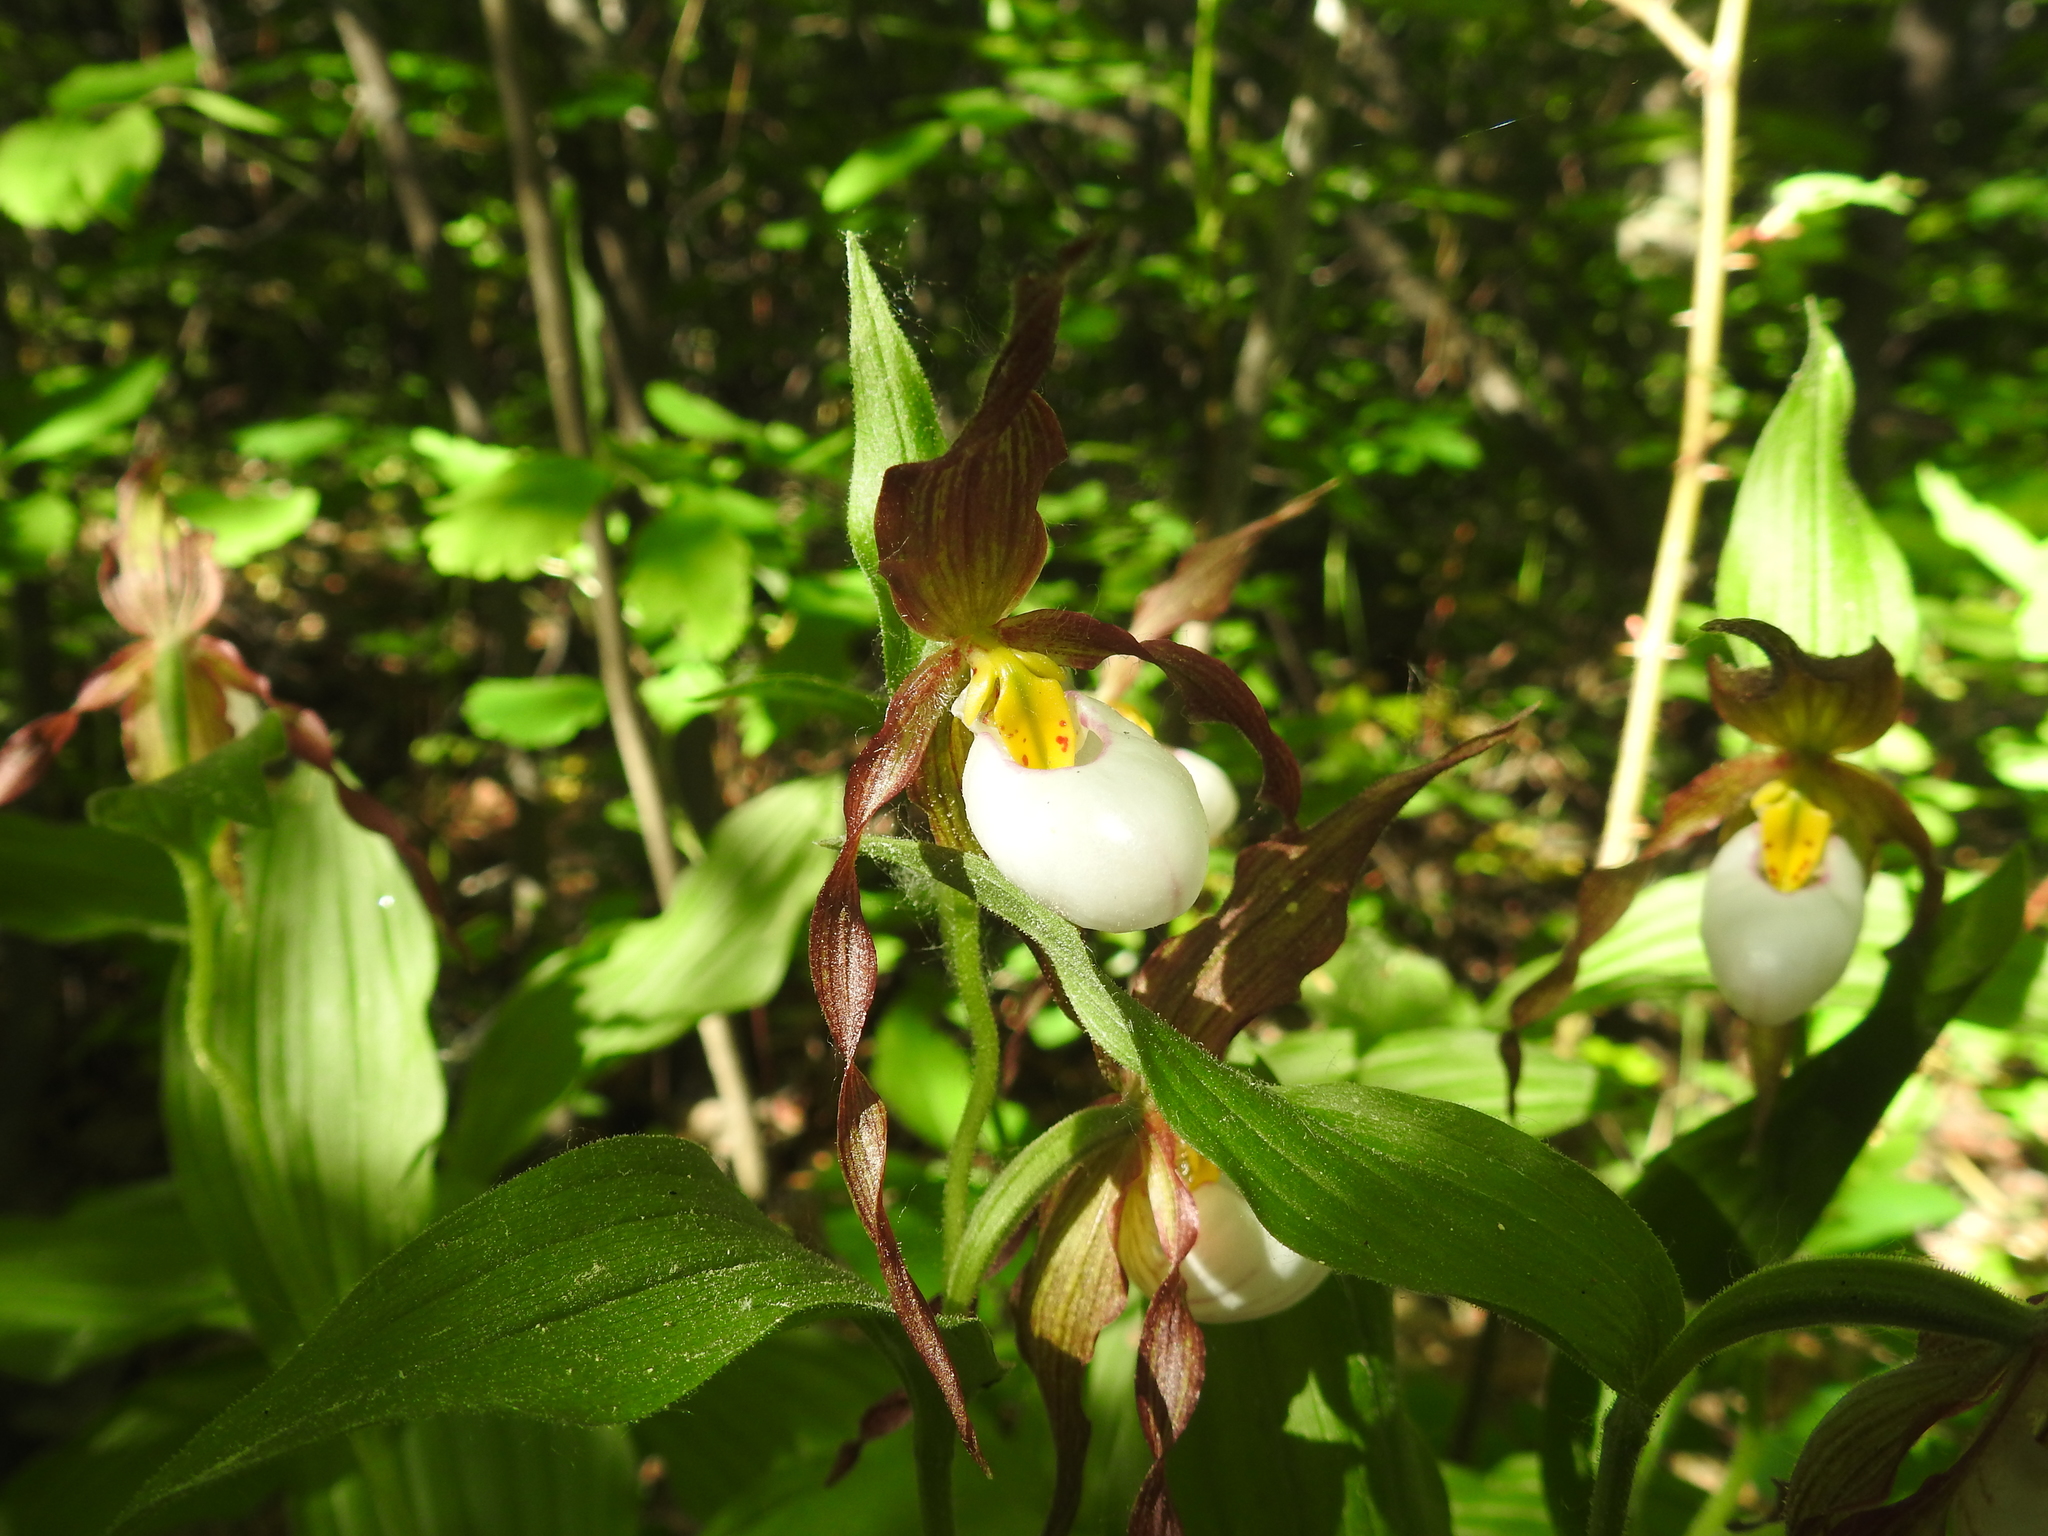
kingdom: Plantae
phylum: Tracheophyta
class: Liliopsida
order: Asparagales
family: Orchidaceae
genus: Cypripedium
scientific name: Cypripedium montanum
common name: Mountain lady's-slipper
